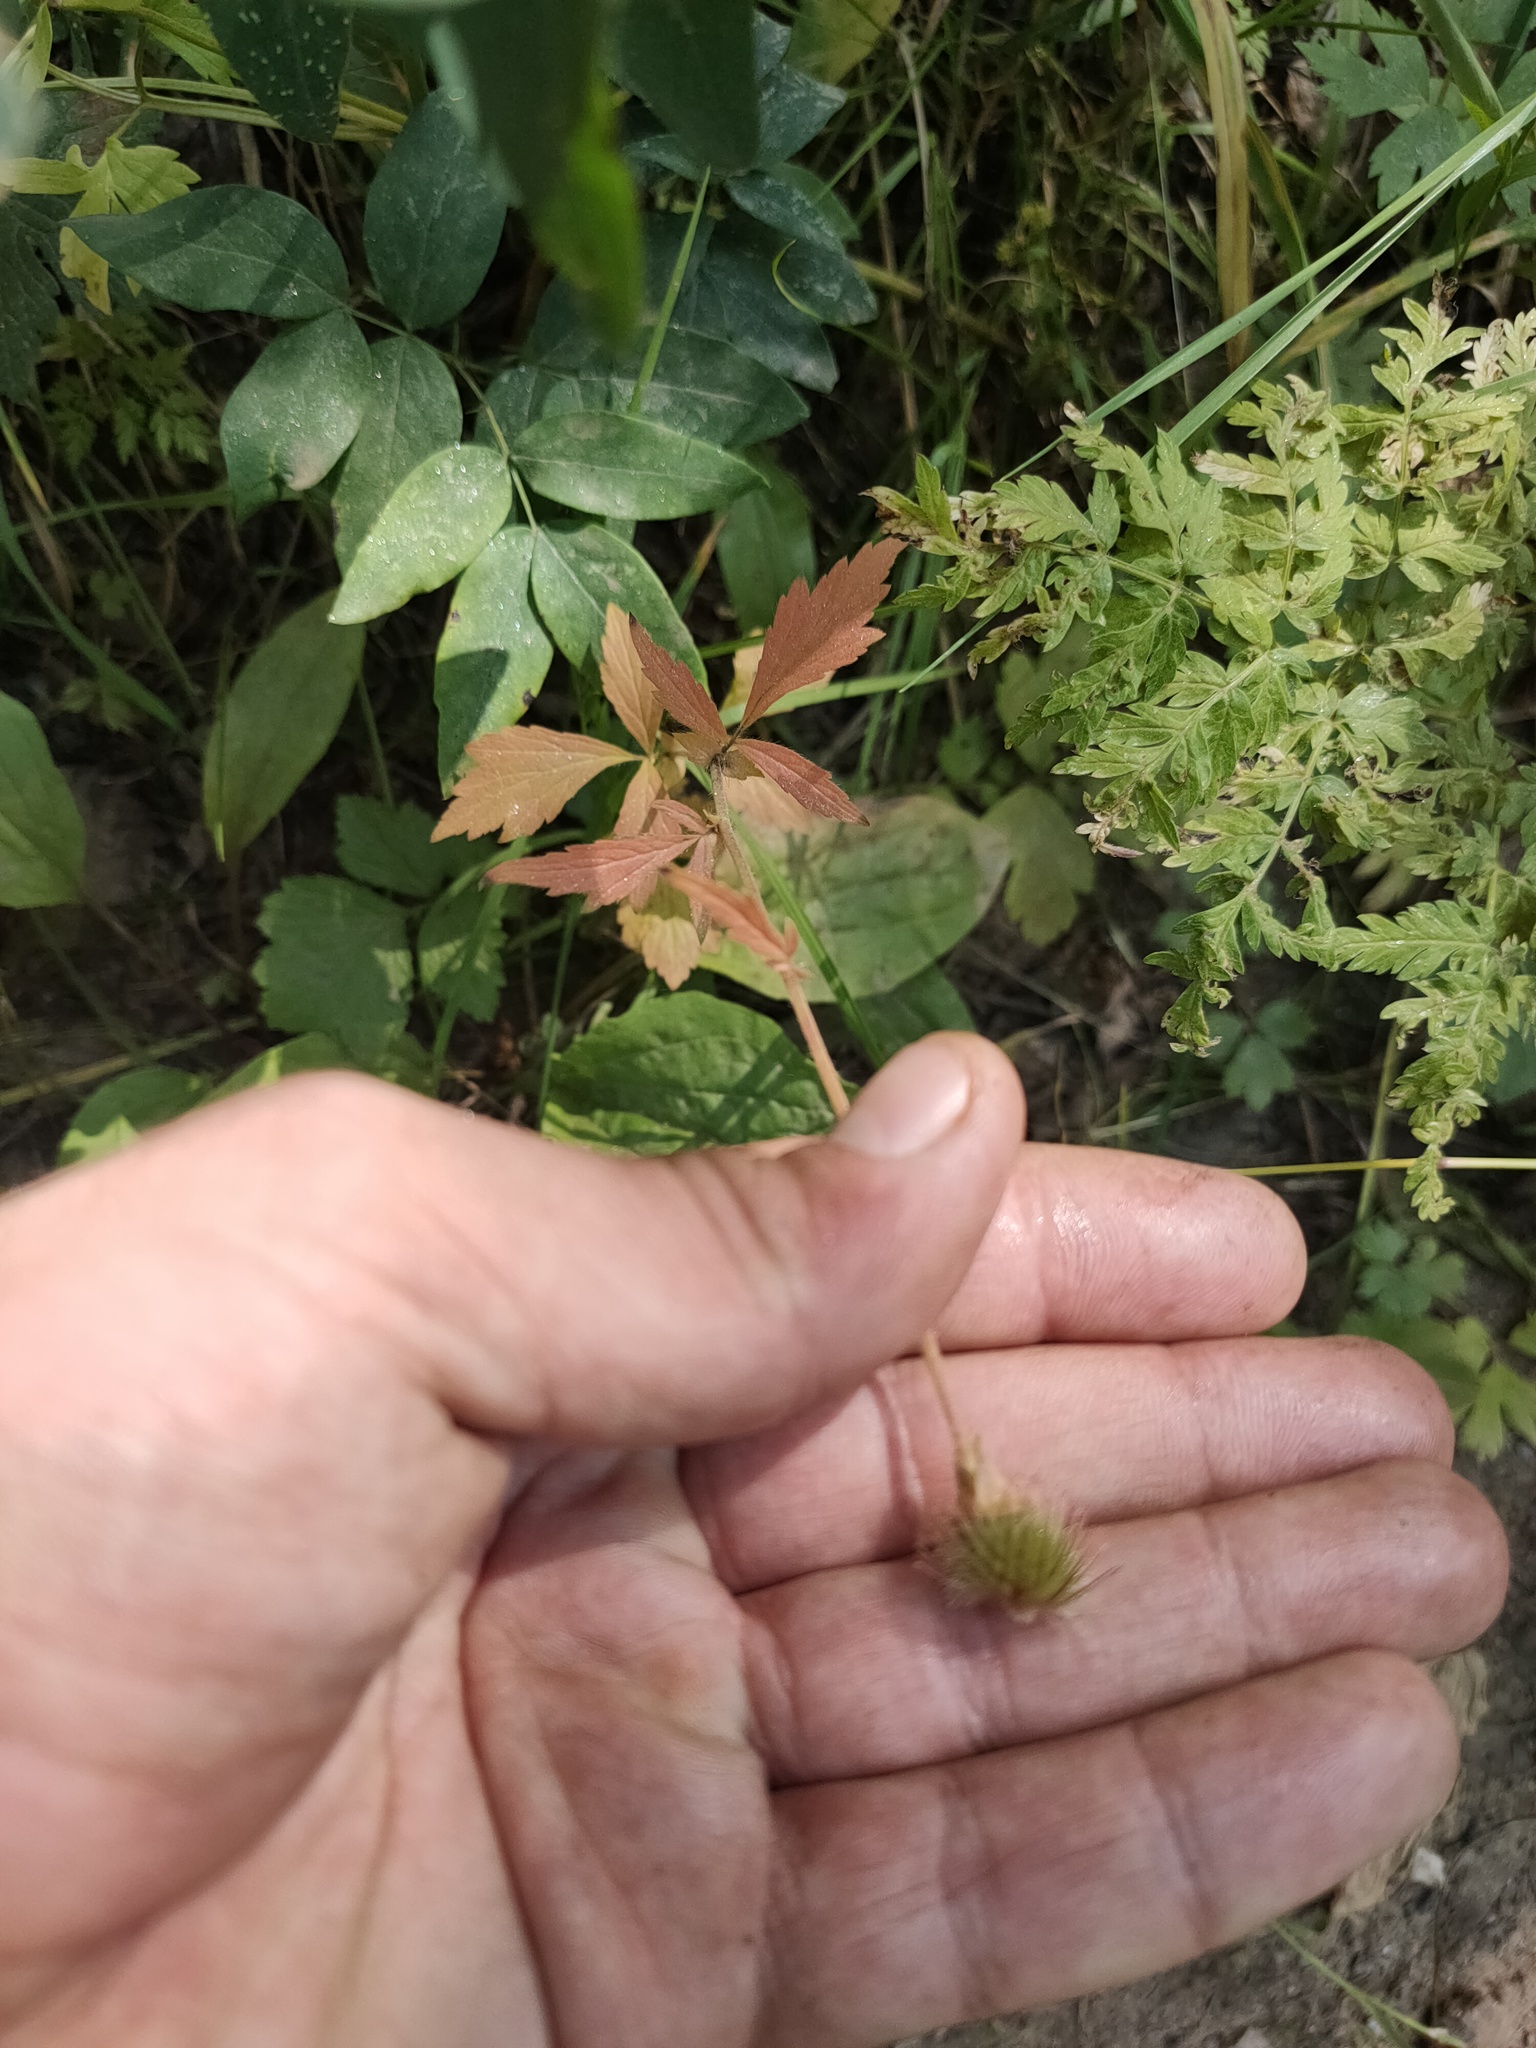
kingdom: Plantae
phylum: Tracheophyta
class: Magnoliopsida
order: Rosales
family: Rosaceae
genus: Geum
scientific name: Geum
